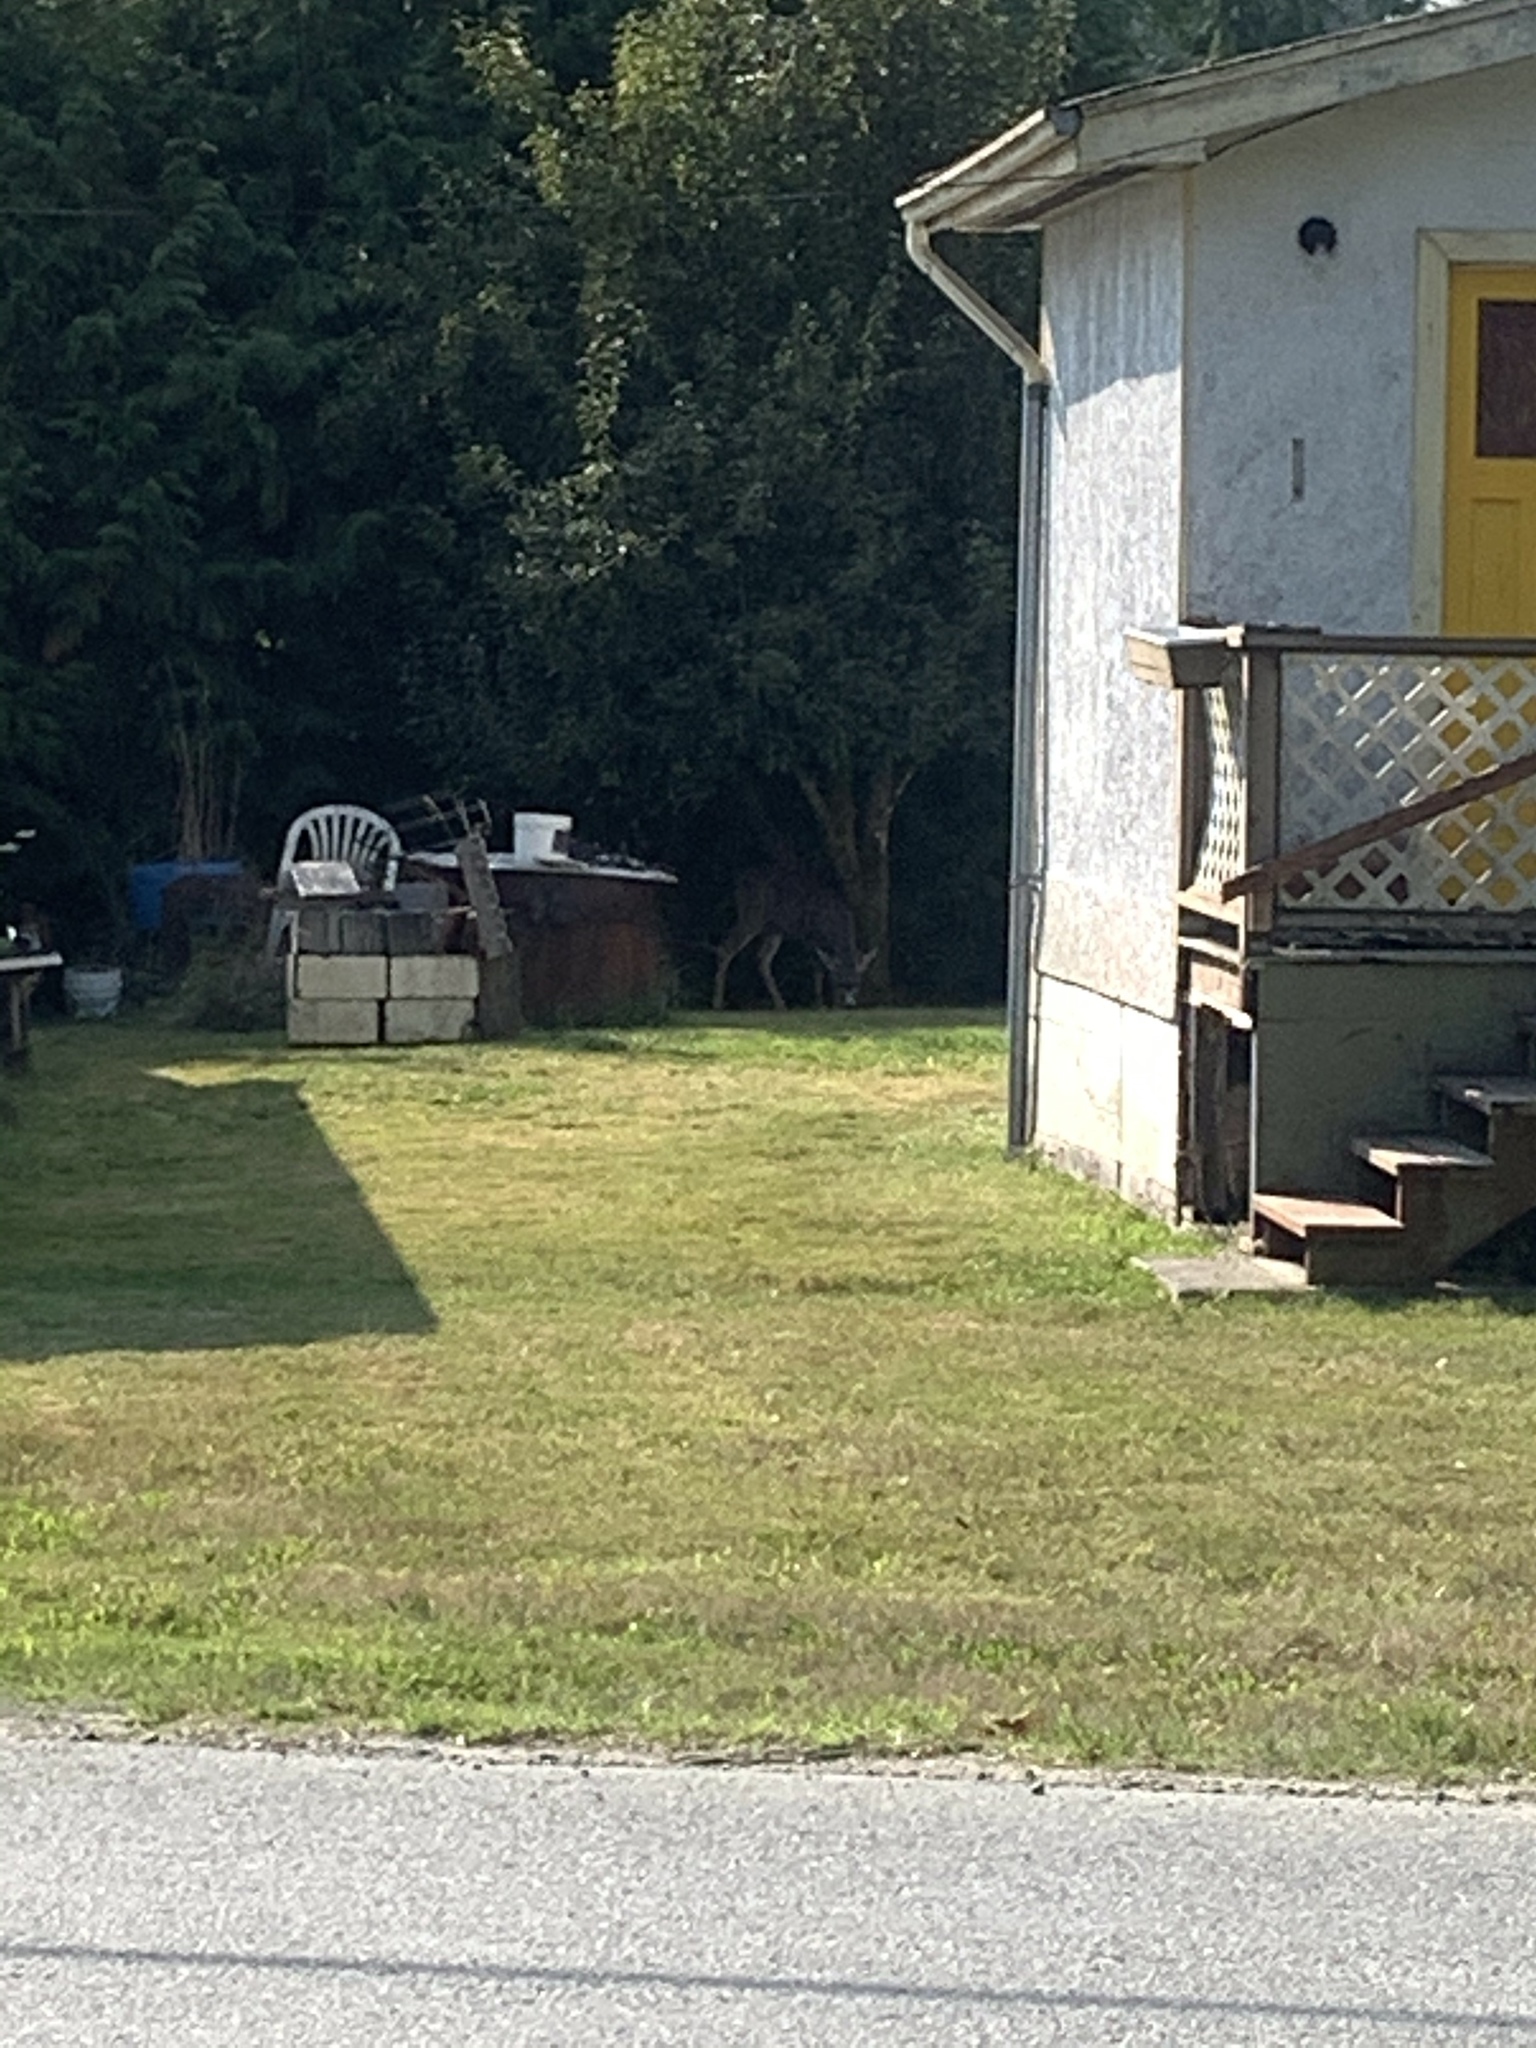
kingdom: Animalia
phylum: Chordata
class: Mammalia
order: Artiodactyla
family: Cervidae
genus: Odocoileus
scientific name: Odocoileus hemionus
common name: Mule deer
